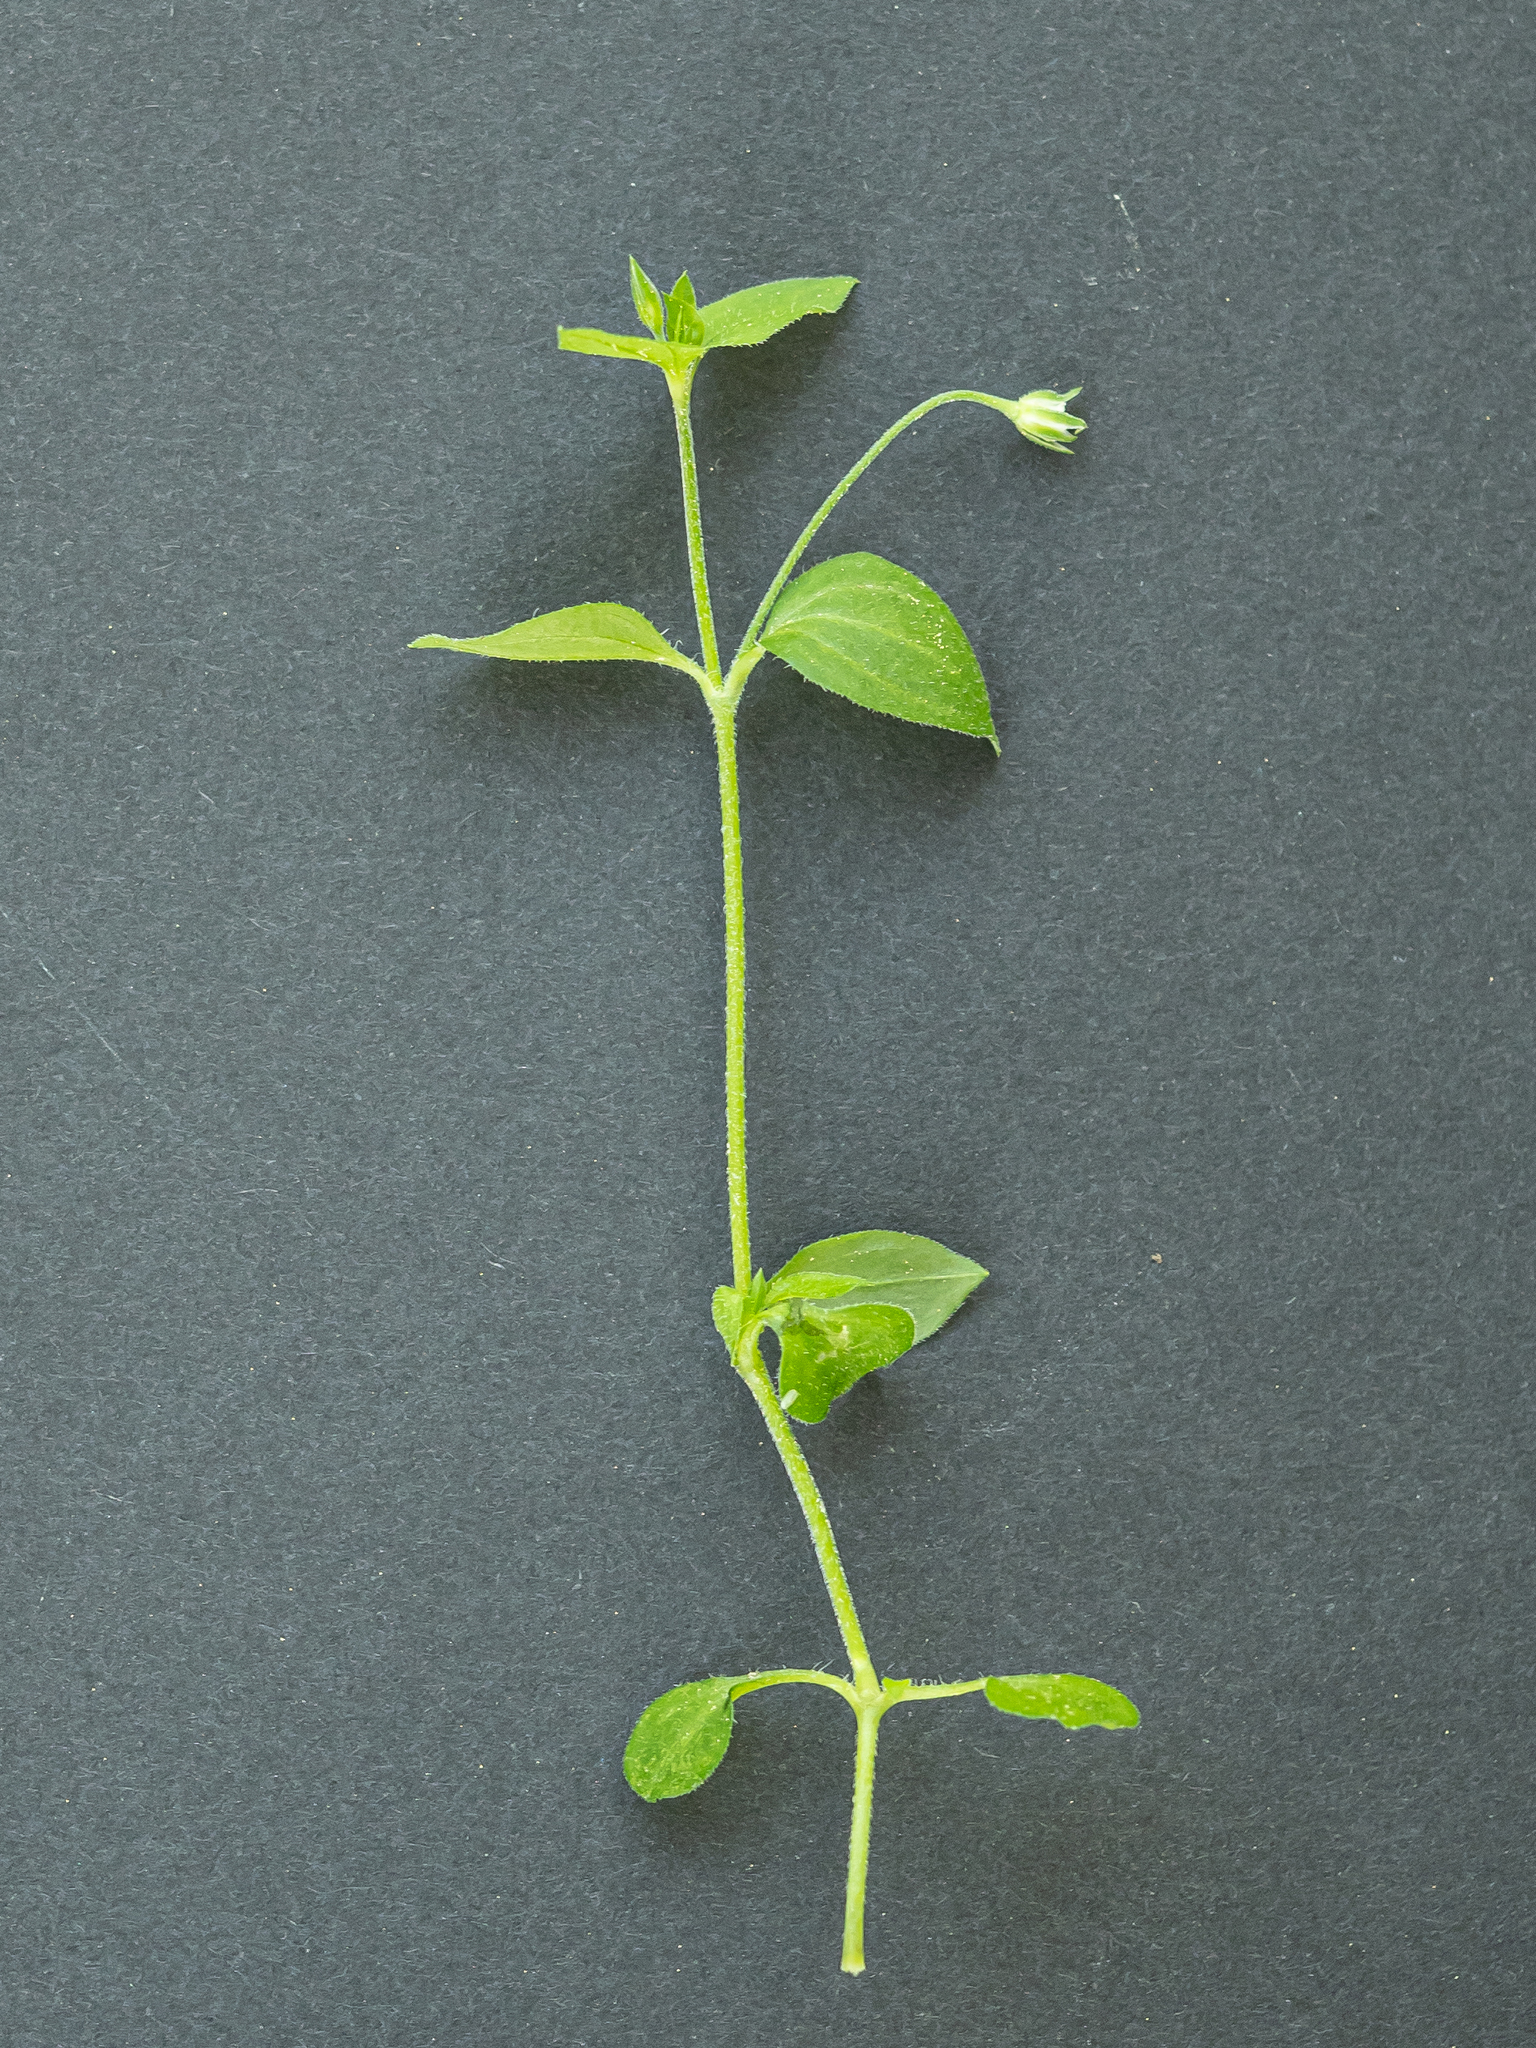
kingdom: Plantae
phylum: Tracheophyta
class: Magnoliopsida
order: Caryophyllales
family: Caryophyllaceae
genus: Moehringia
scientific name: Moehringia trinervia
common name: Three-nerved sandwort
